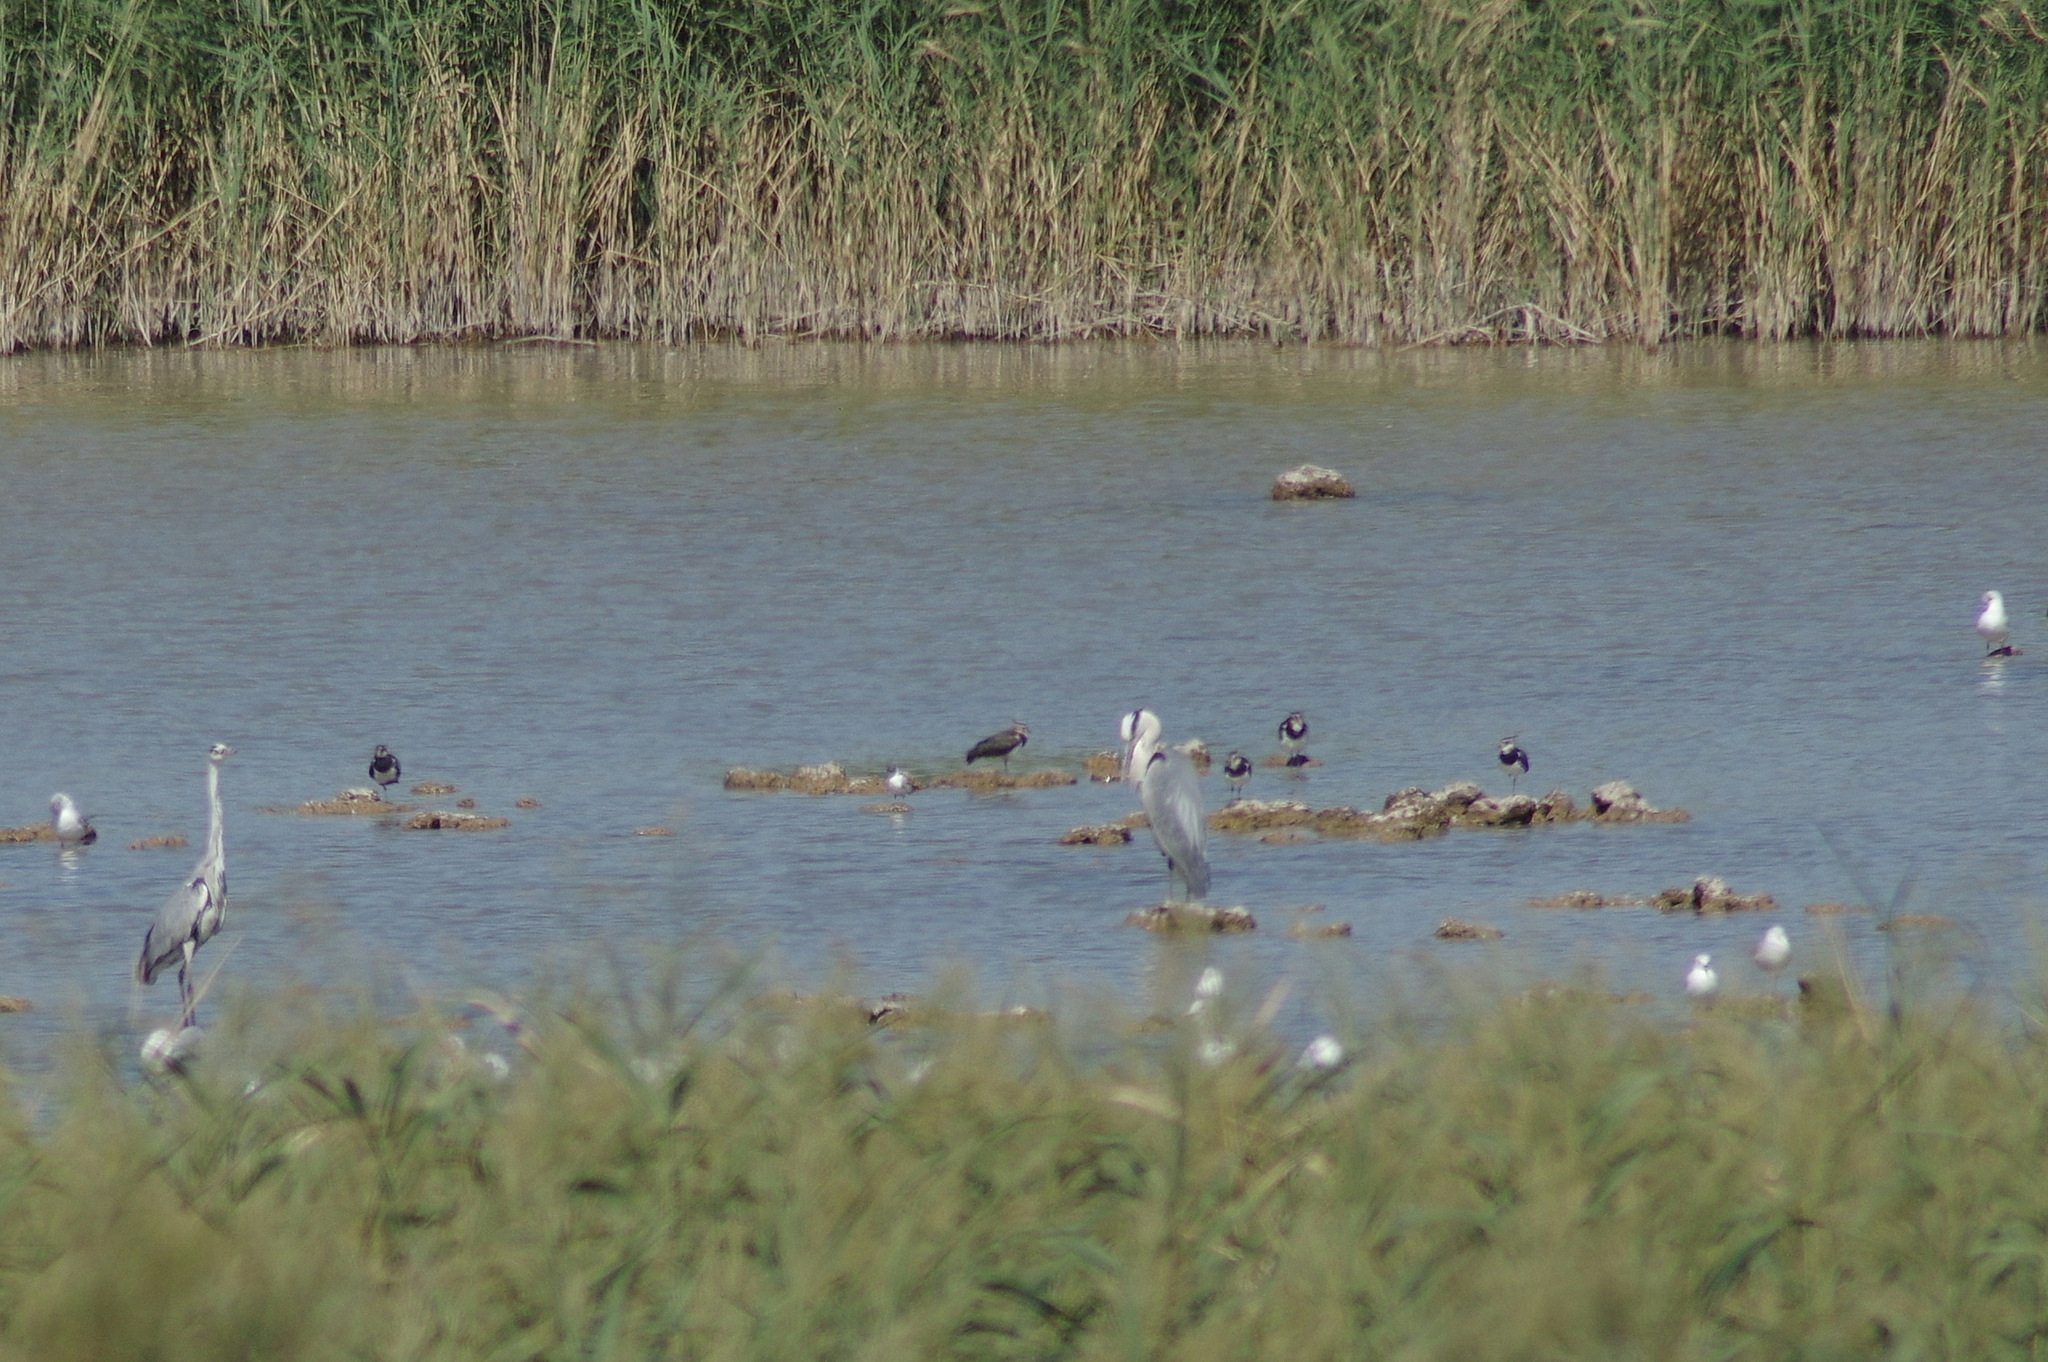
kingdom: Animalia
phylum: Chordata
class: Aves
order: Charadriiformes
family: Charadriidae
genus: Vanellus
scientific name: Vanellus vanellus
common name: Northern lapwing
